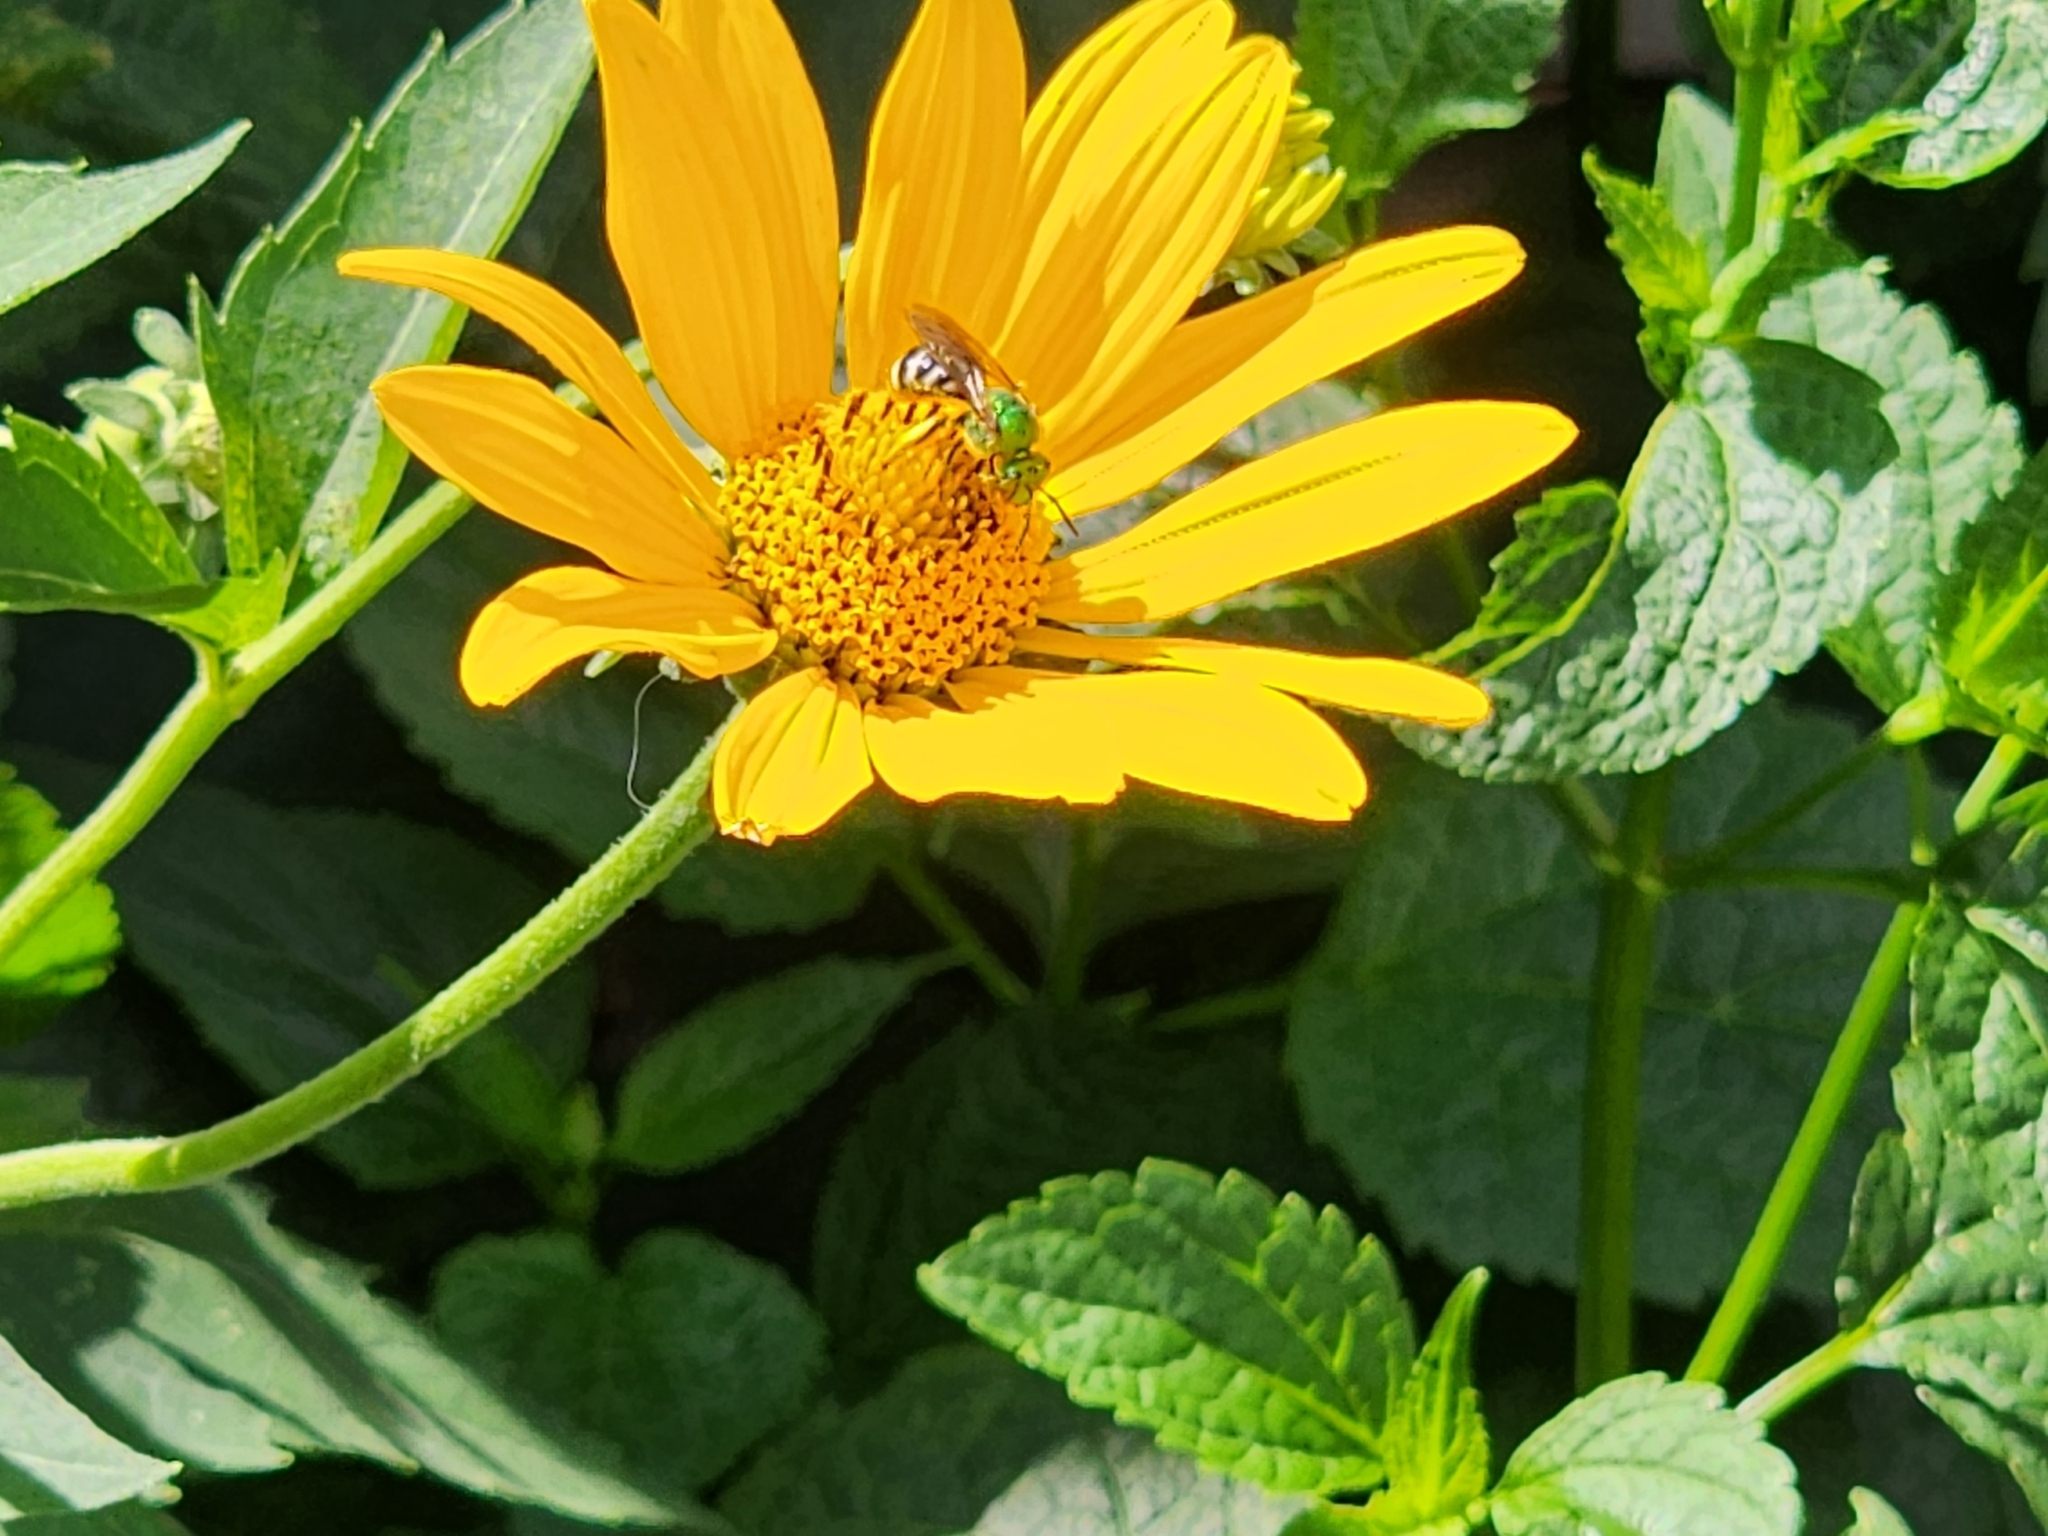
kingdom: Animalia
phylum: Arthropoda
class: Insecta
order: Hymenoptera
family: Halictidae
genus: Agapostemon
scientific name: Agapostemon virescens
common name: Bicolored striped sweat bee
